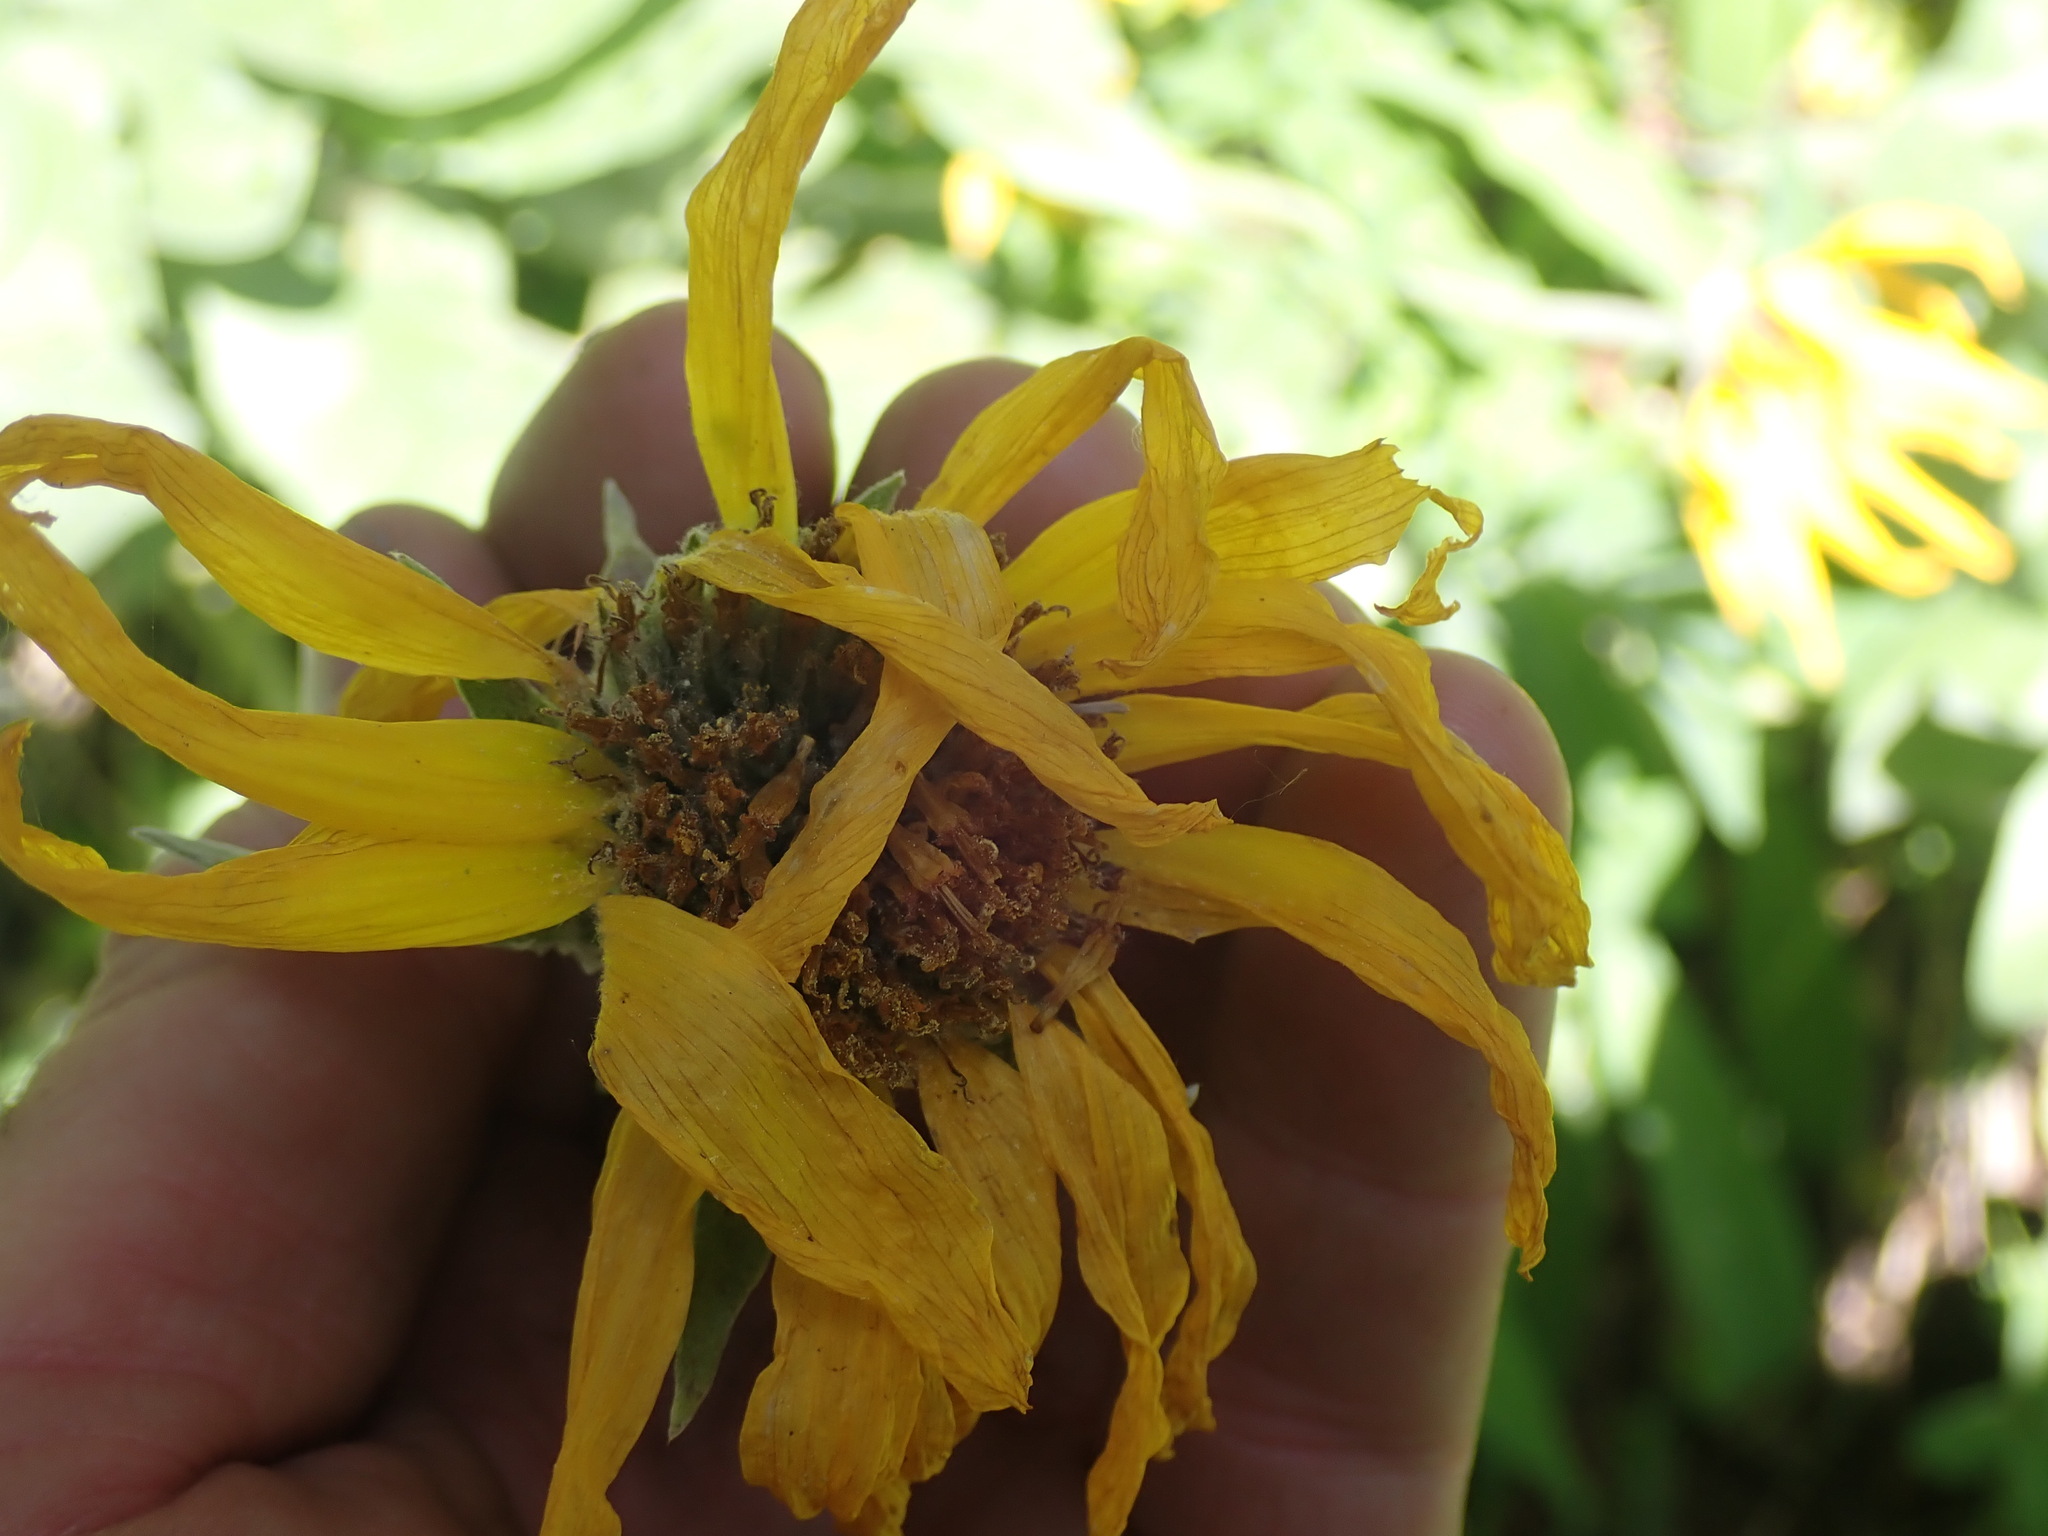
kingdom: Plantae
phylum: Tracheophyta
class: Magnoliopsida
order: Asterales
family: Asteraceae
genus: Wyethia
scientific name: Wyethia sagittata
